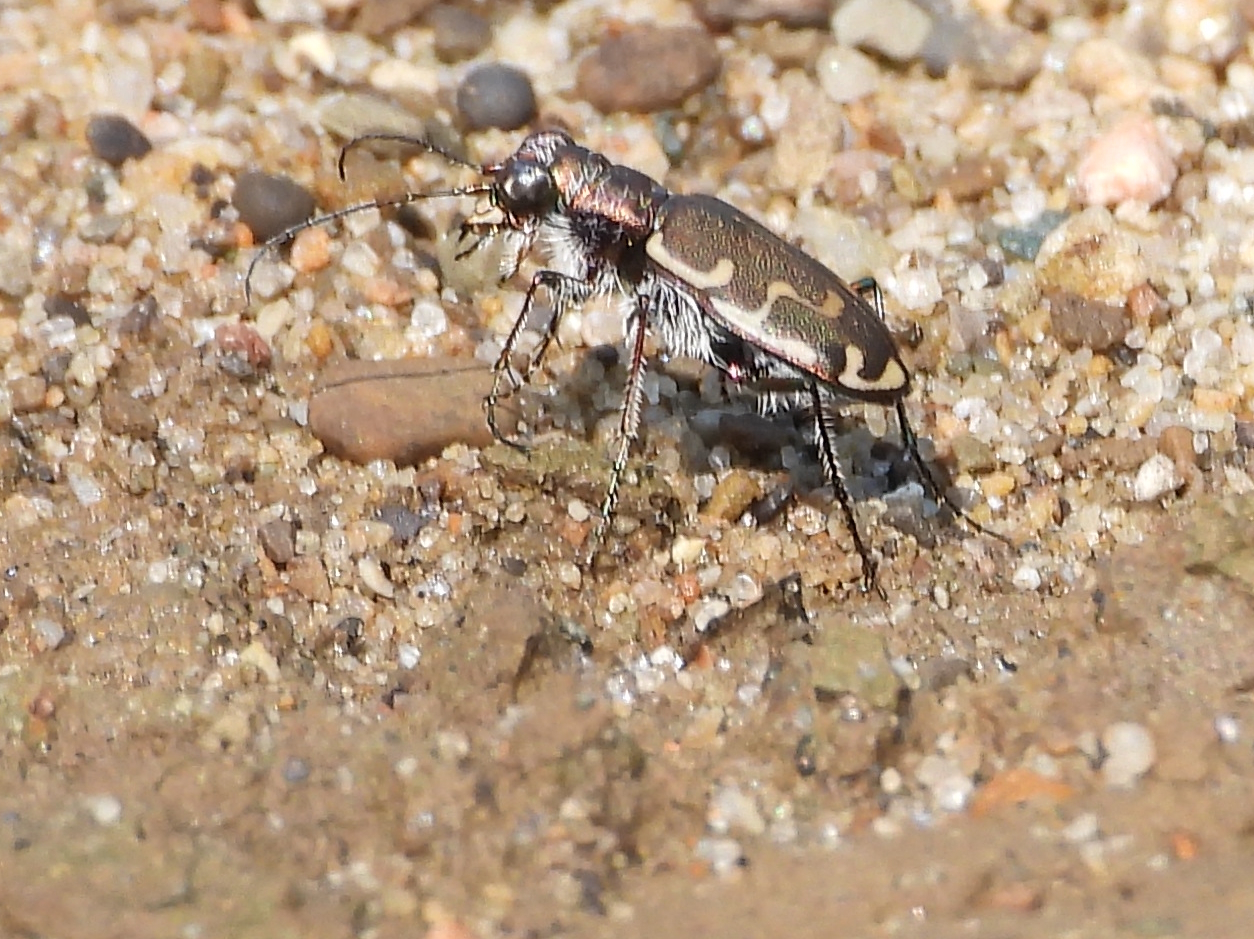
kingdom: Animalia
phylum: Arthropoda
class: Insecta
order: Coleoptera
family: Carabidae
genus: Cicindela
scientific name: Cicindela repanda
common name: Bronzed tiger beetle
